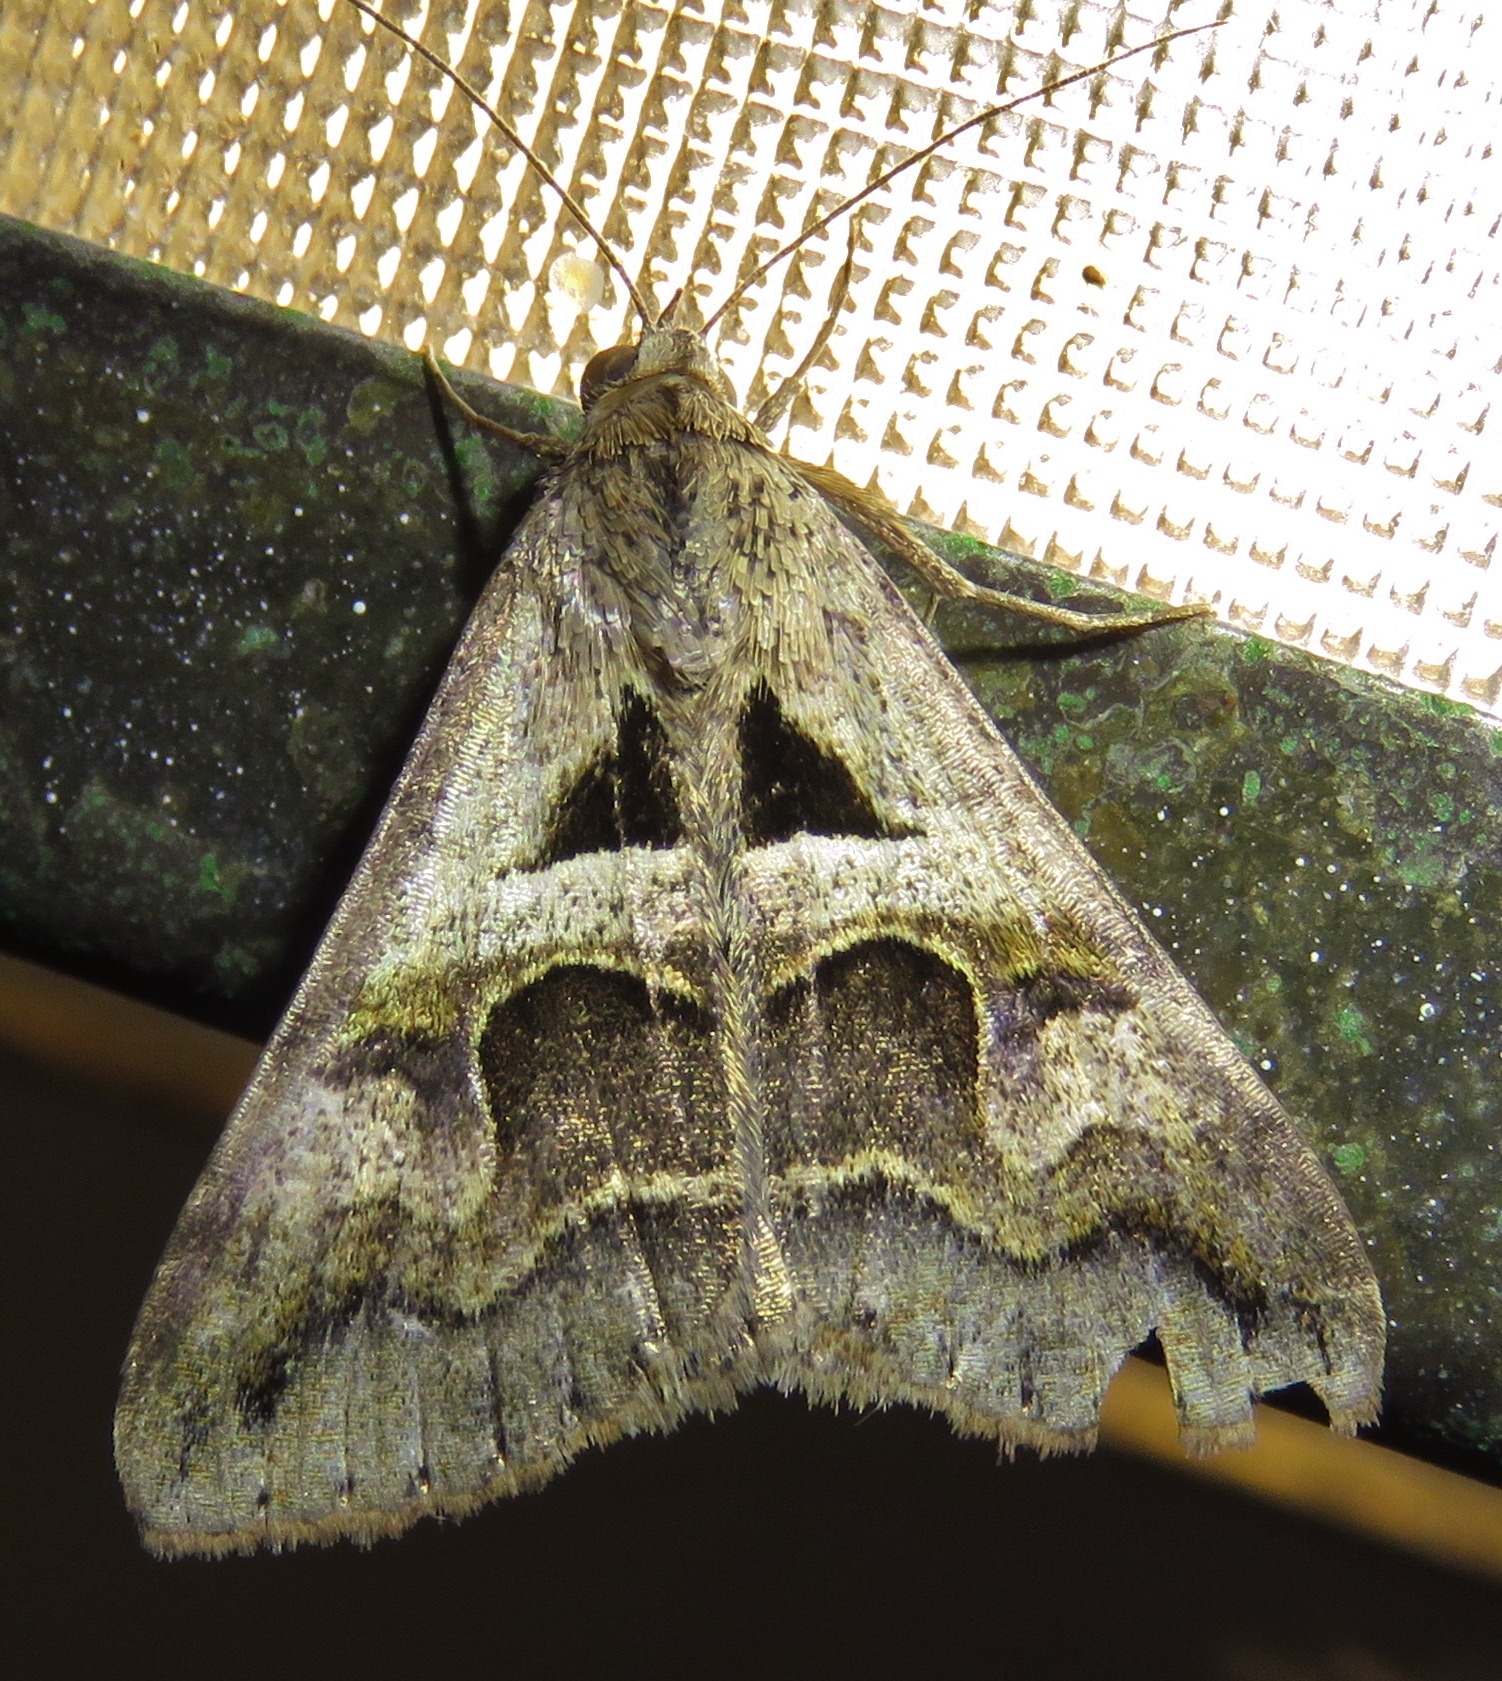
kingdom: Animalia
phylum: Arthropoda
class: Insecta
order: Lepidoptera
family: Erebidae
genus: Melipotis
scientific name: Melipotis cellaris
